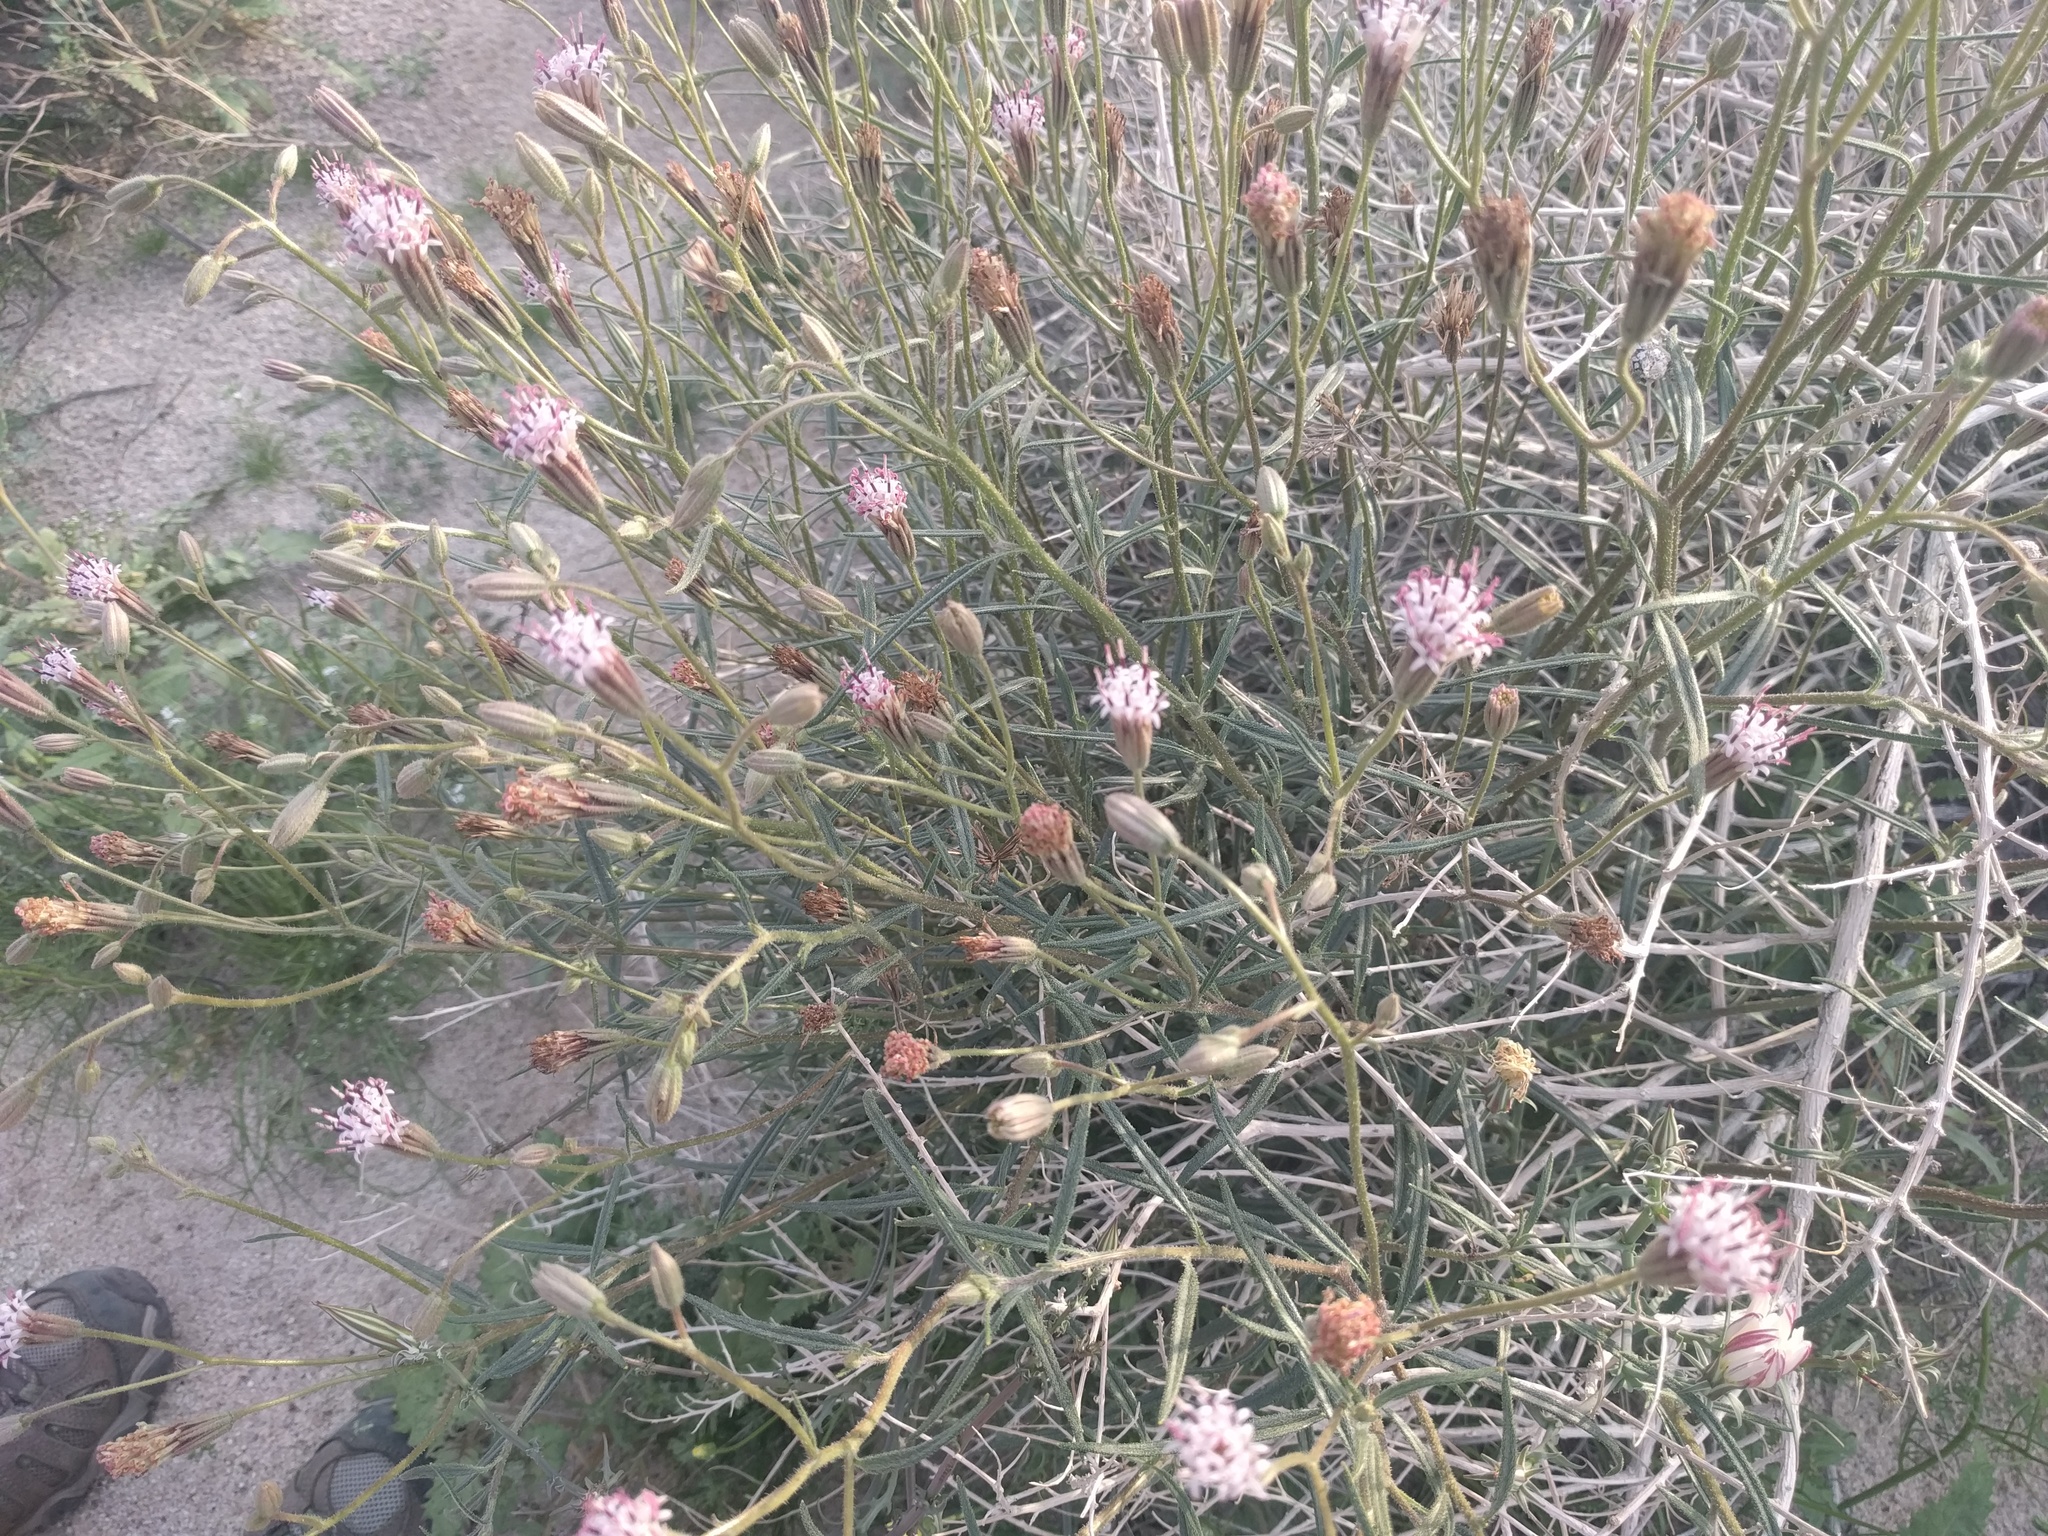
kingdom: Plantae
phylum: Tracheophyta
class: Magnoliopsida
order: Asterales
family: Asteraceae
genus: Palafoxia
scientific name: Palafoxia arida
